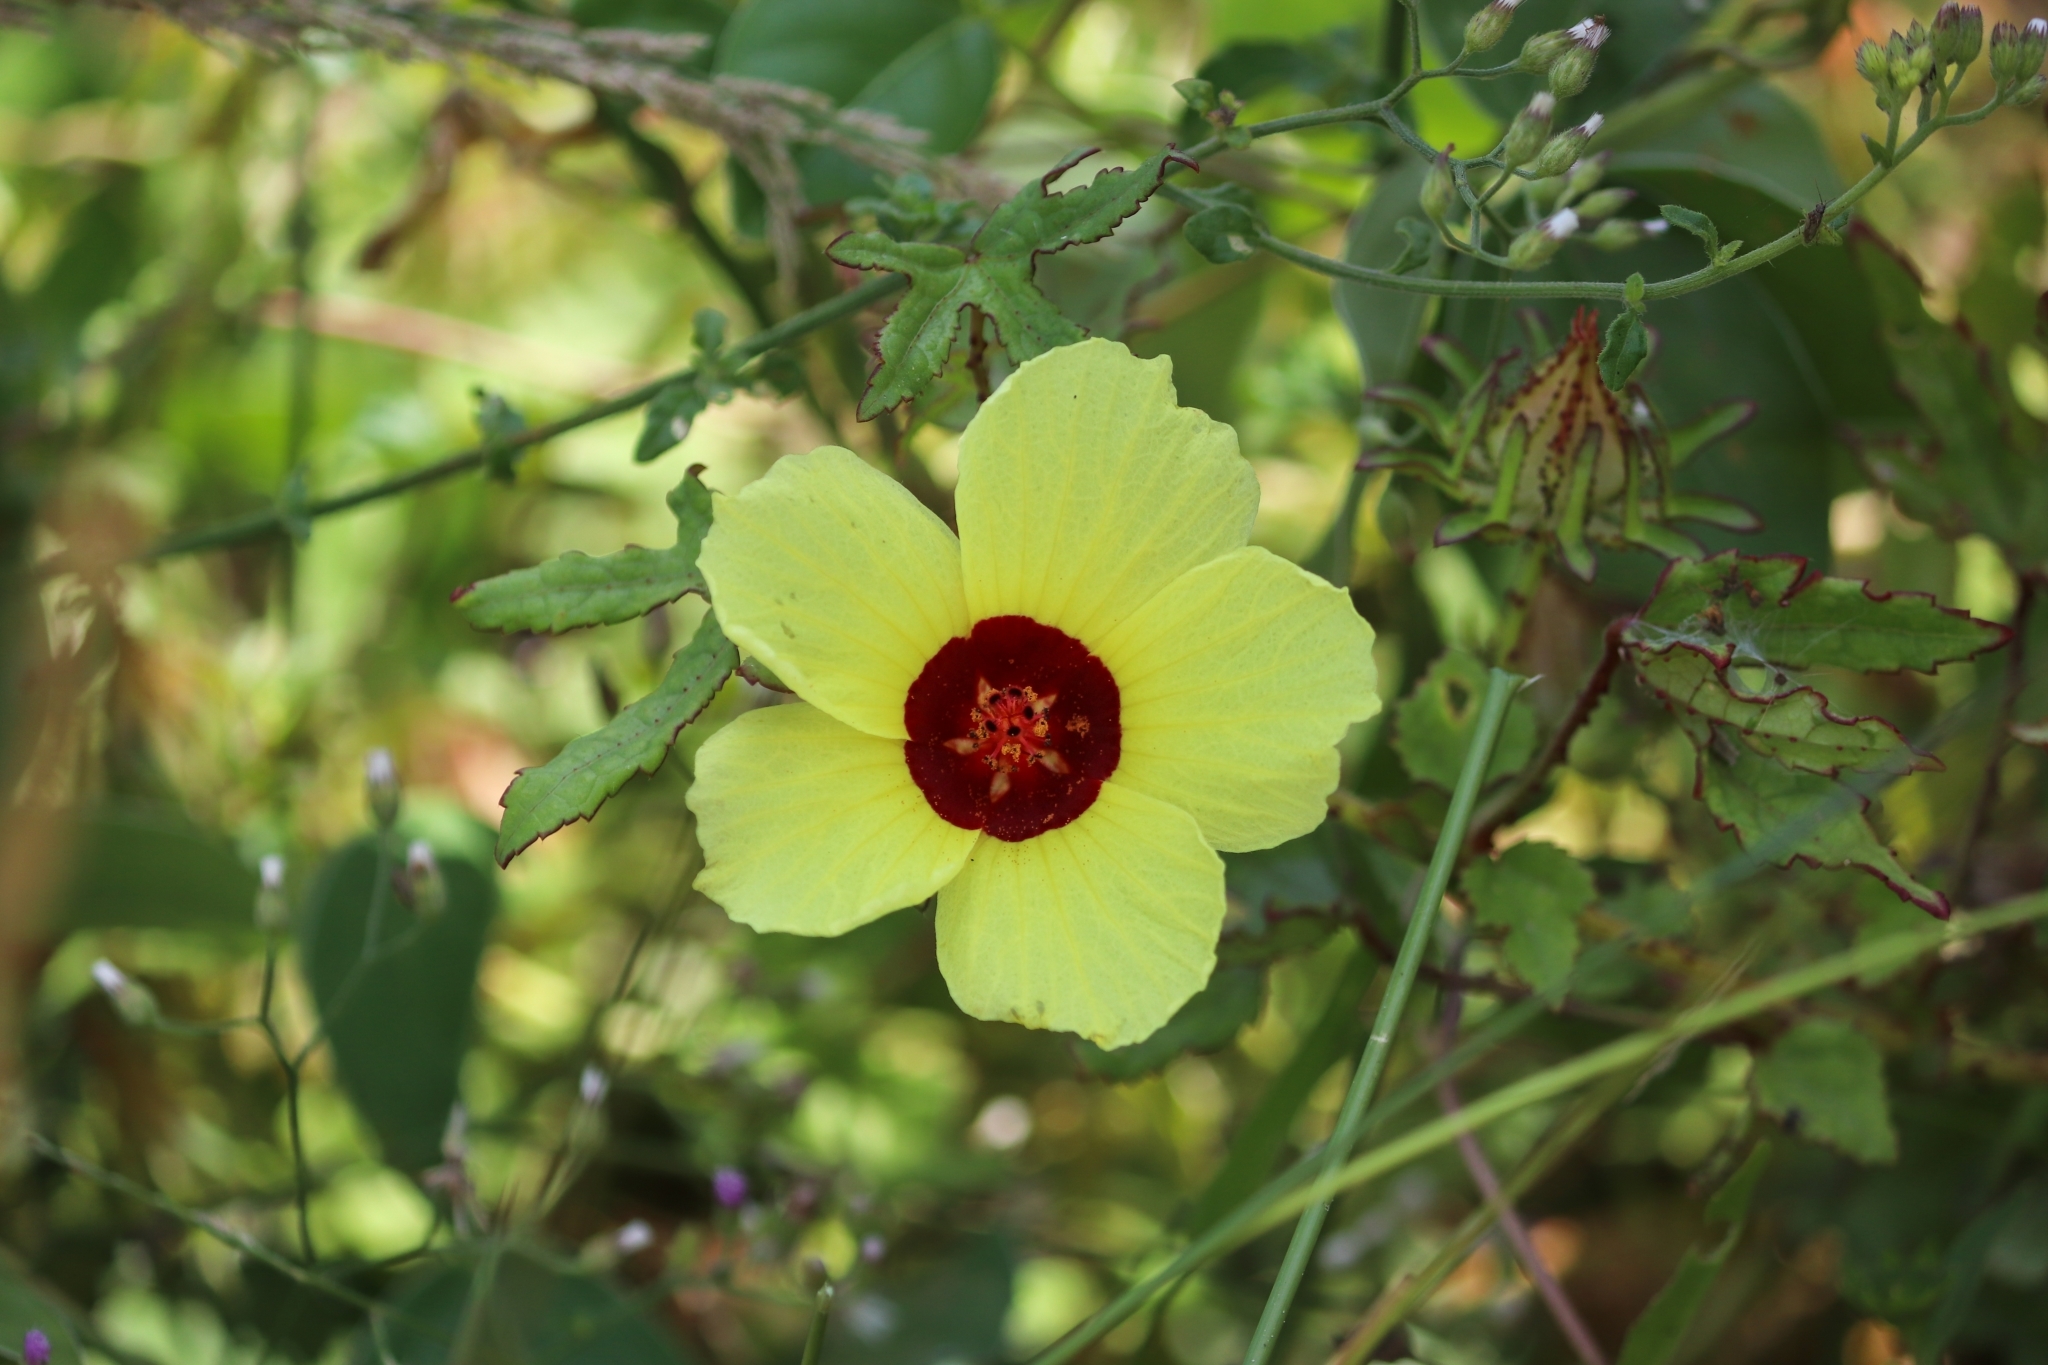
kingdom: Plantae
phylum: Tracheophyta
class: Magnoliopsida
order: Malvales
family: Malvaceae
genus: Hibiscus
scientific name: Hibiscus surattensis
